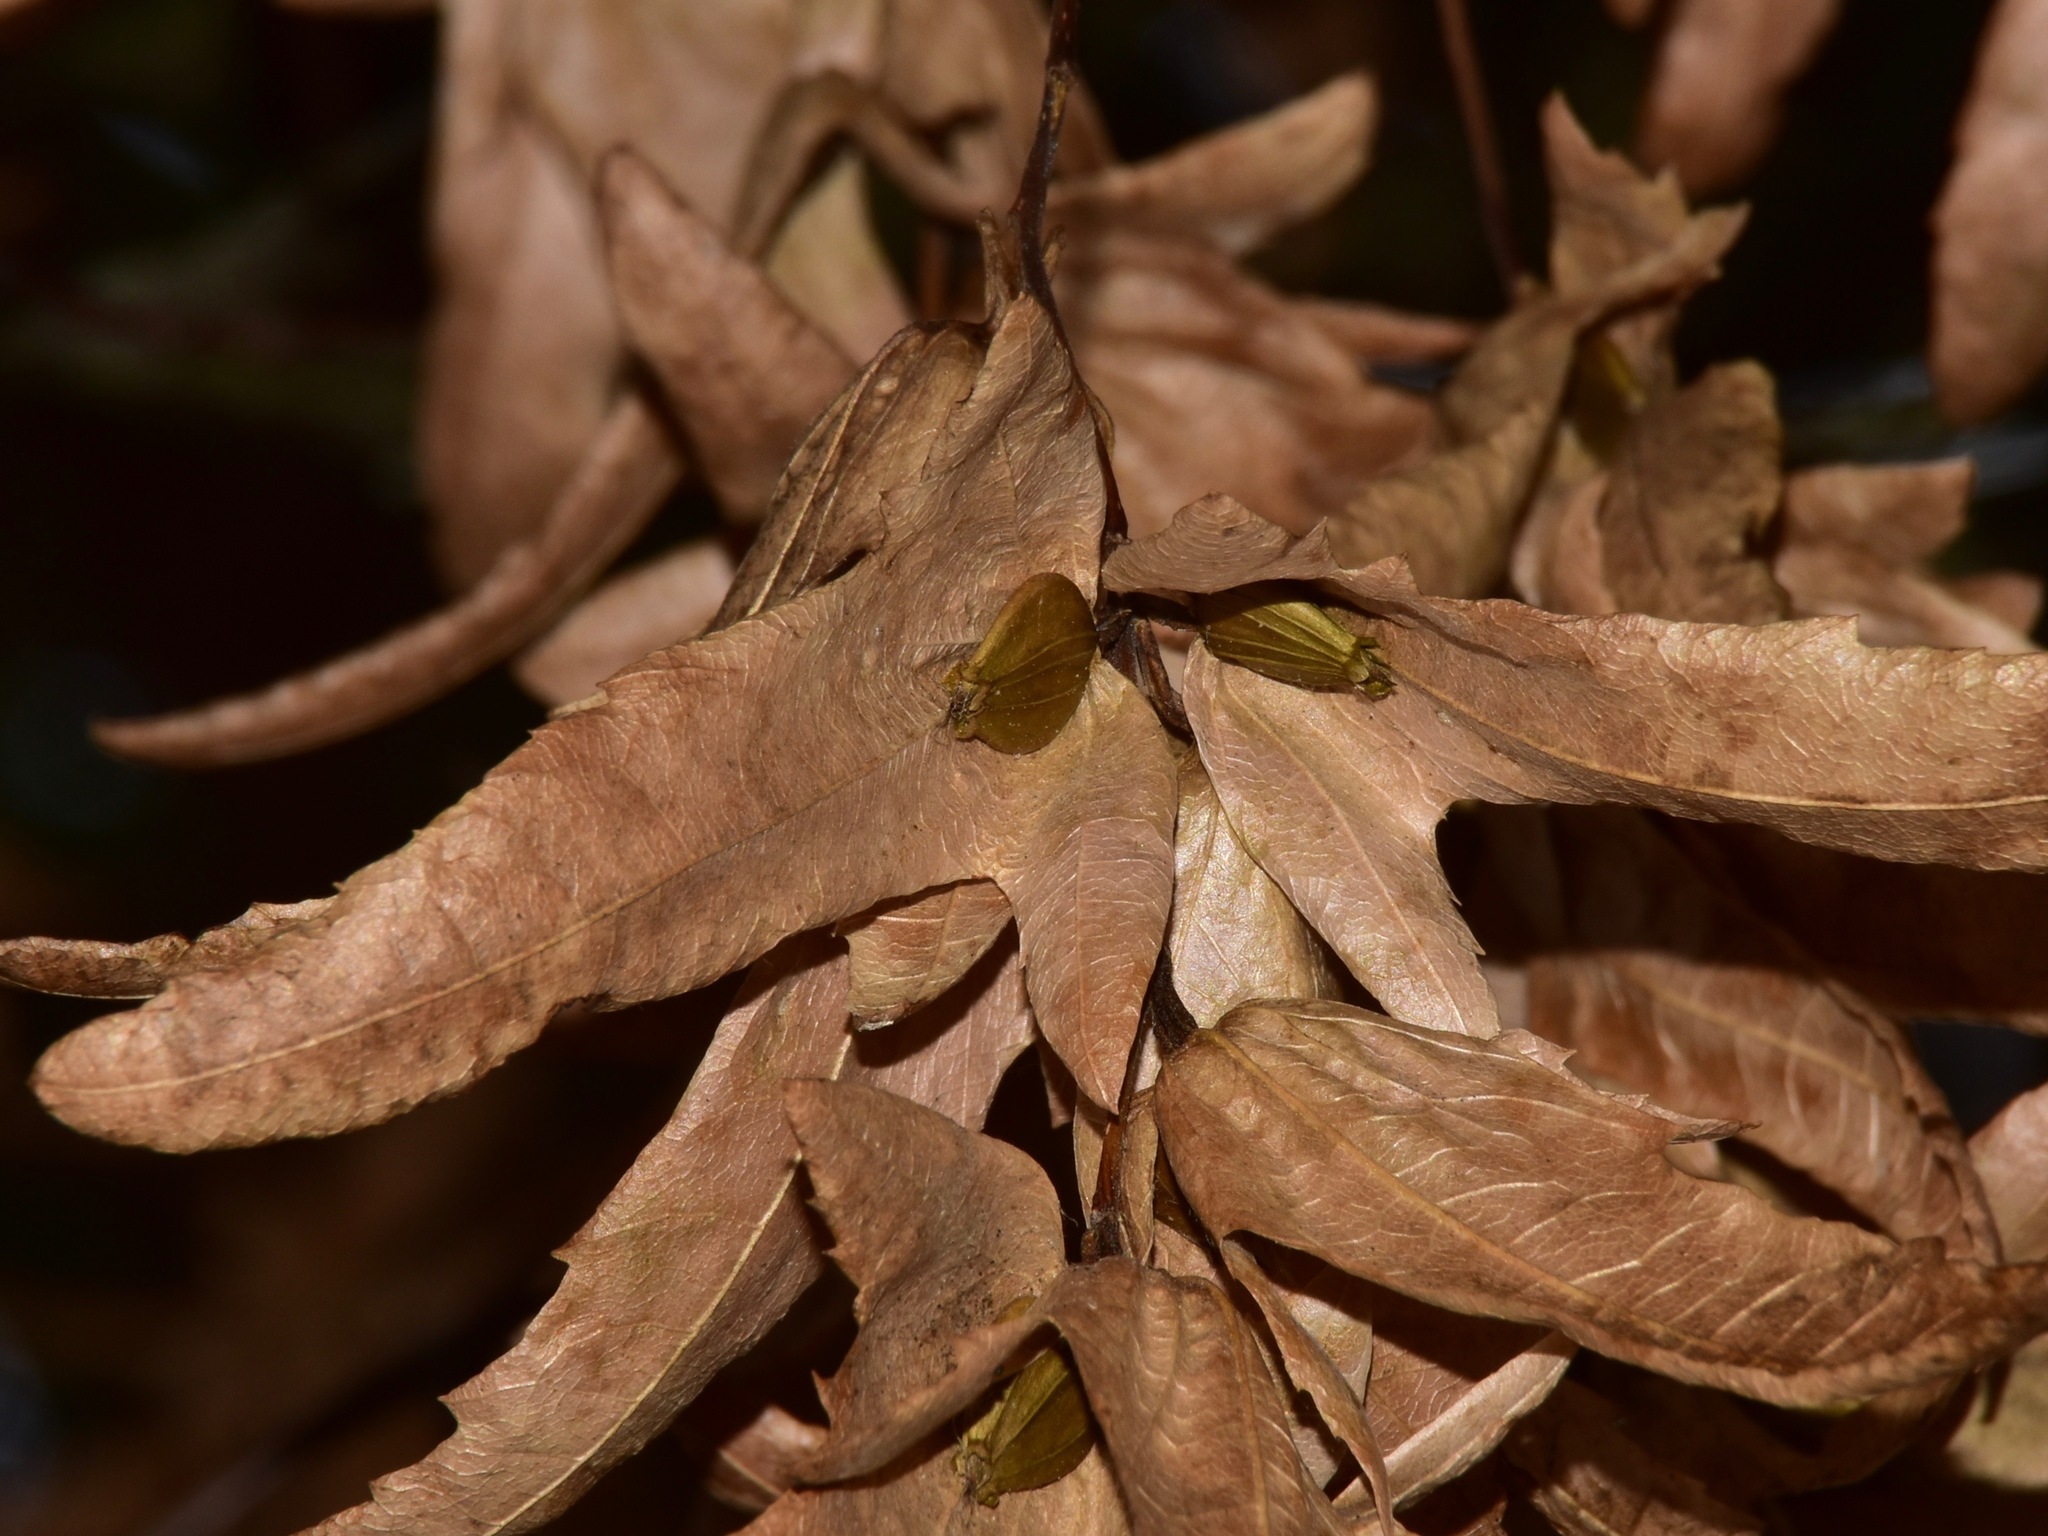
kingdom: Plantae
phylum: Tracheophyta
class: Magnoliopsida
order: Fagales
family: Betulaceae
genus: Carpinus
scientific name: Carpinus betulus
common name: Hornbeam
